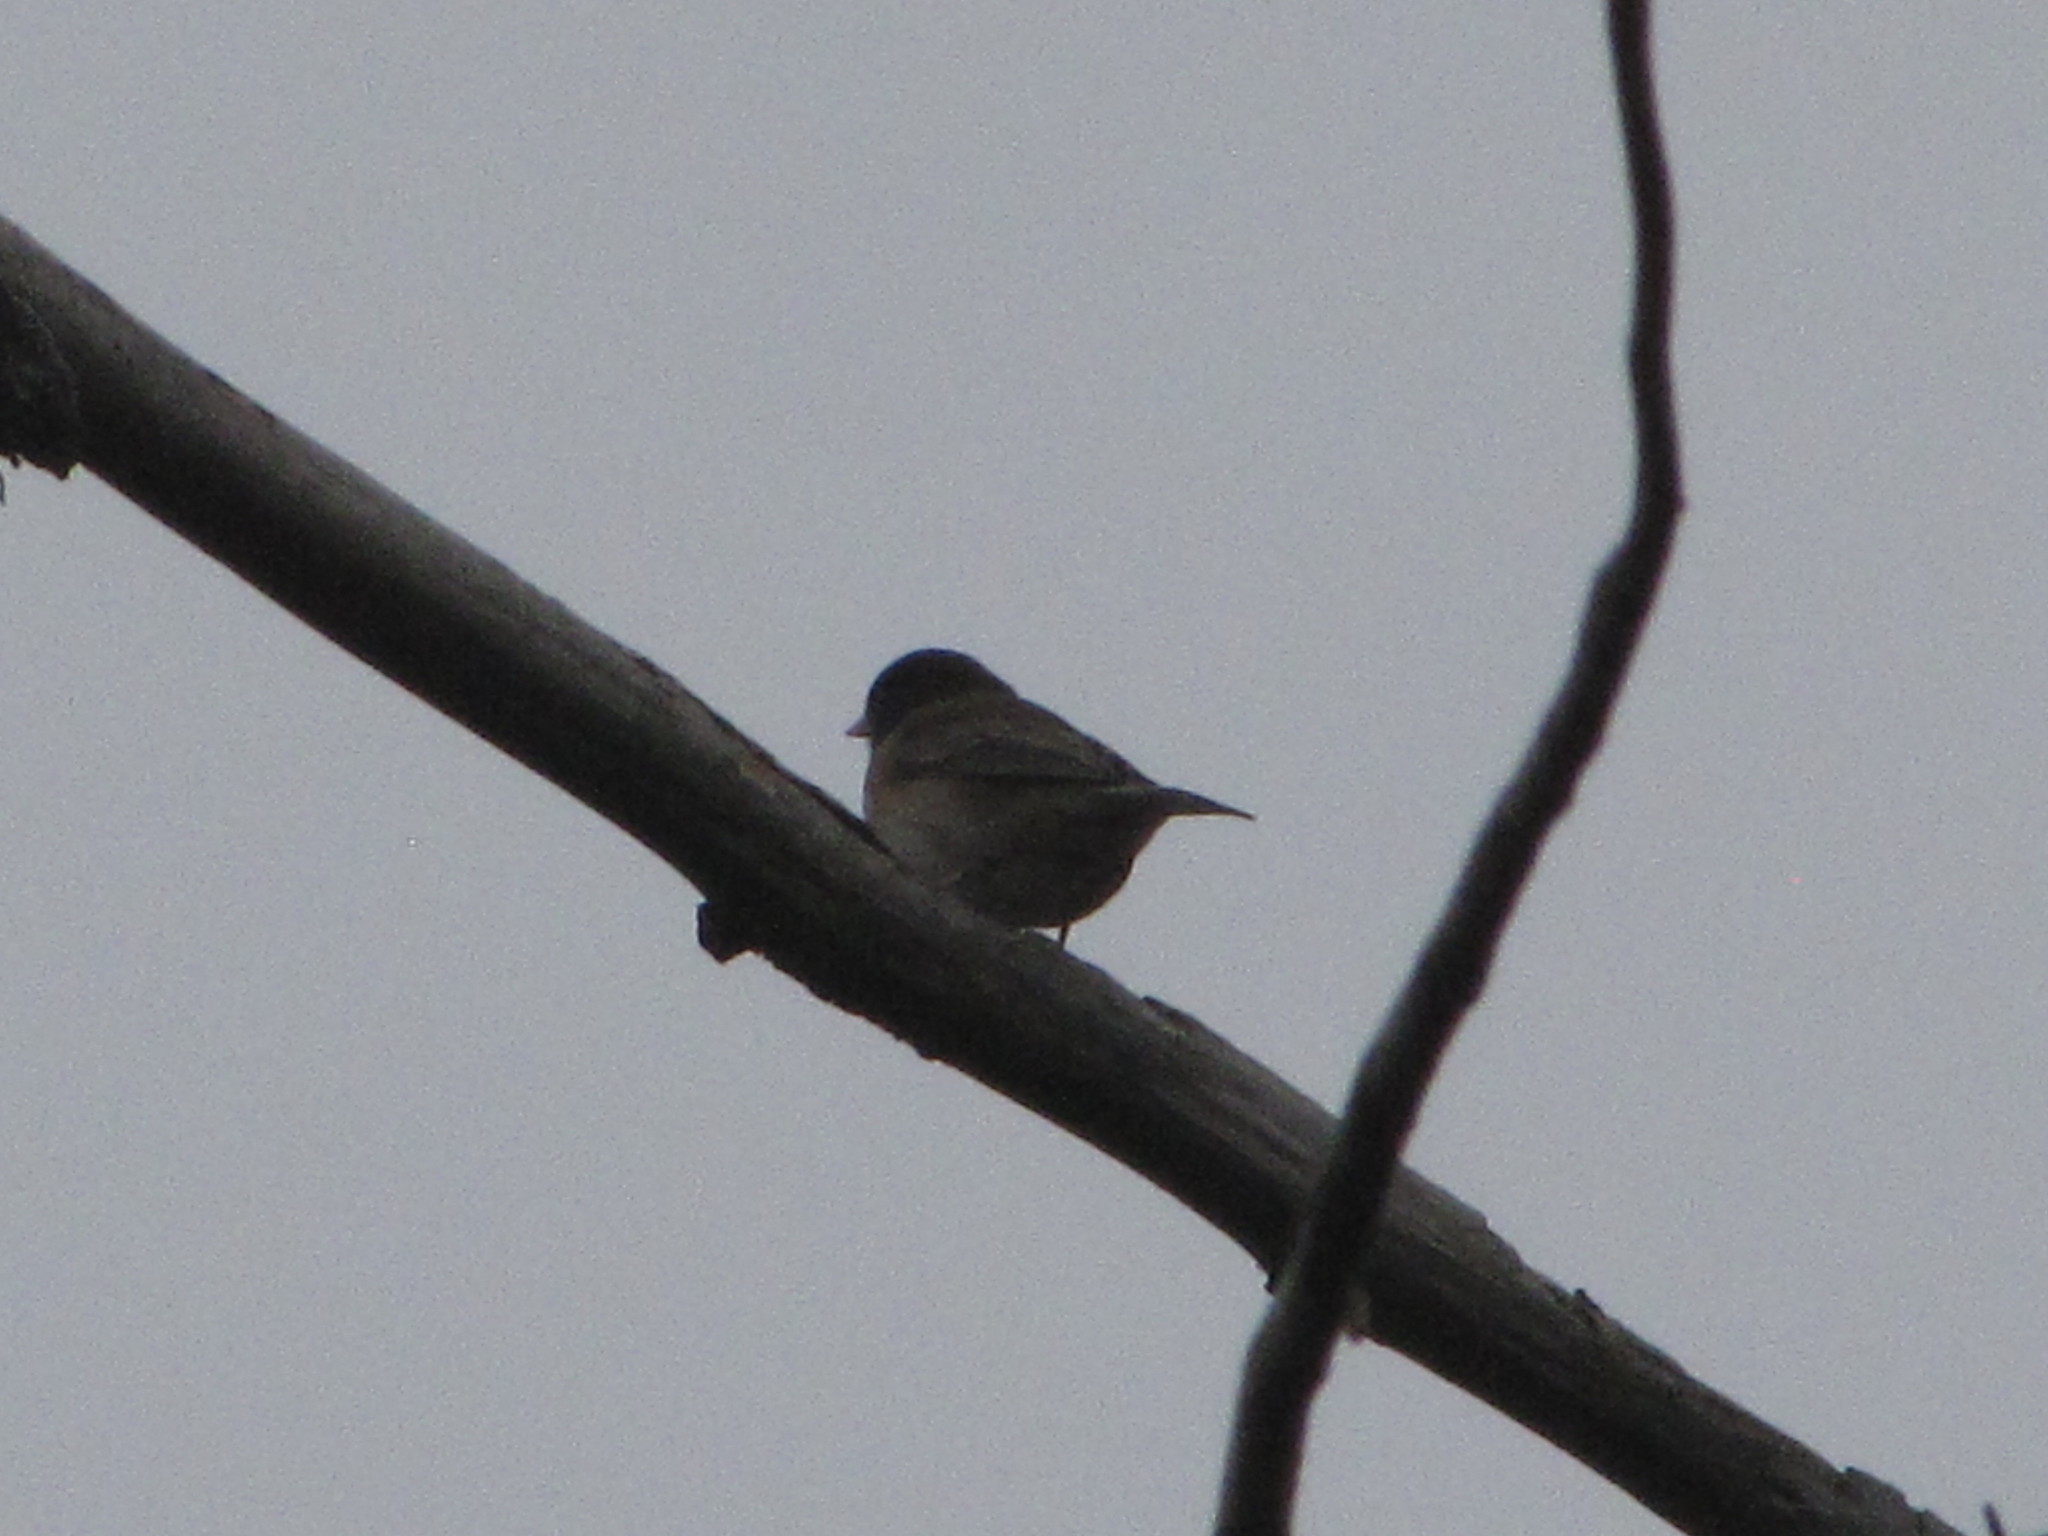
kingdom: Animalia
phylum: Chordata
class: Aves
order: Passeriformes
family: Passerellidae
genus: Junco
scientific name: Junco hyemalis
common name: Dark-eyed junco
